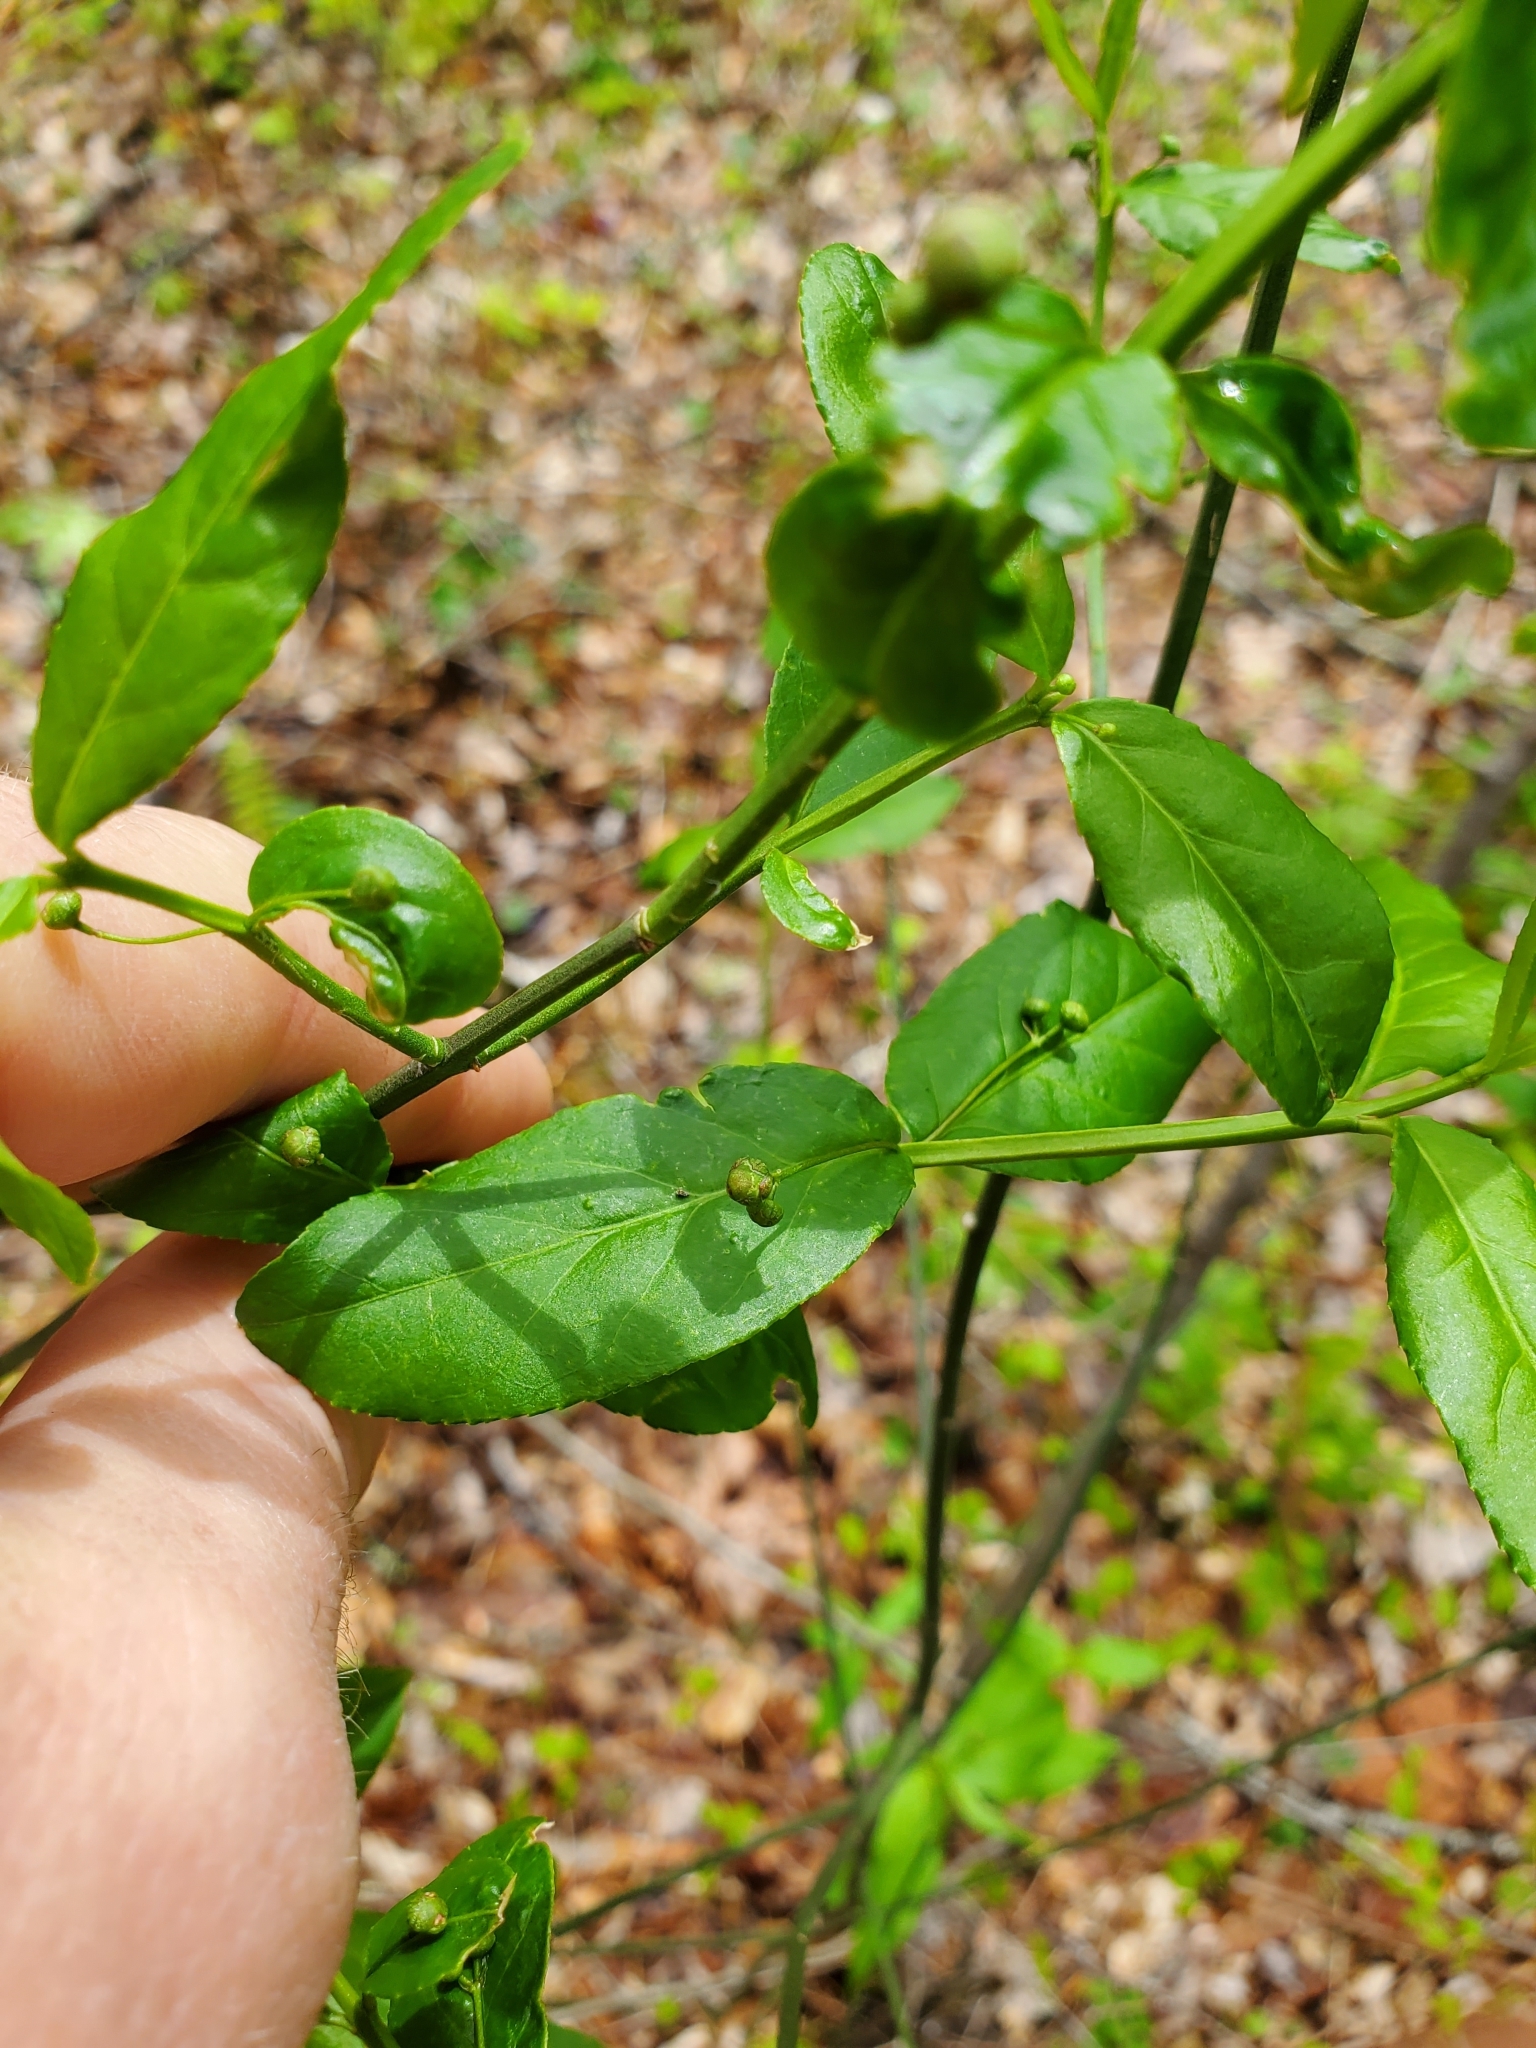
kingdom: Plantae
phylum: Tracheophyta
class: Magnoliopsida
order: Celastrales
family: Celastraceae
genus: Euonymus
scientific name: Euonymus americanus
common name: Bursting-heart
